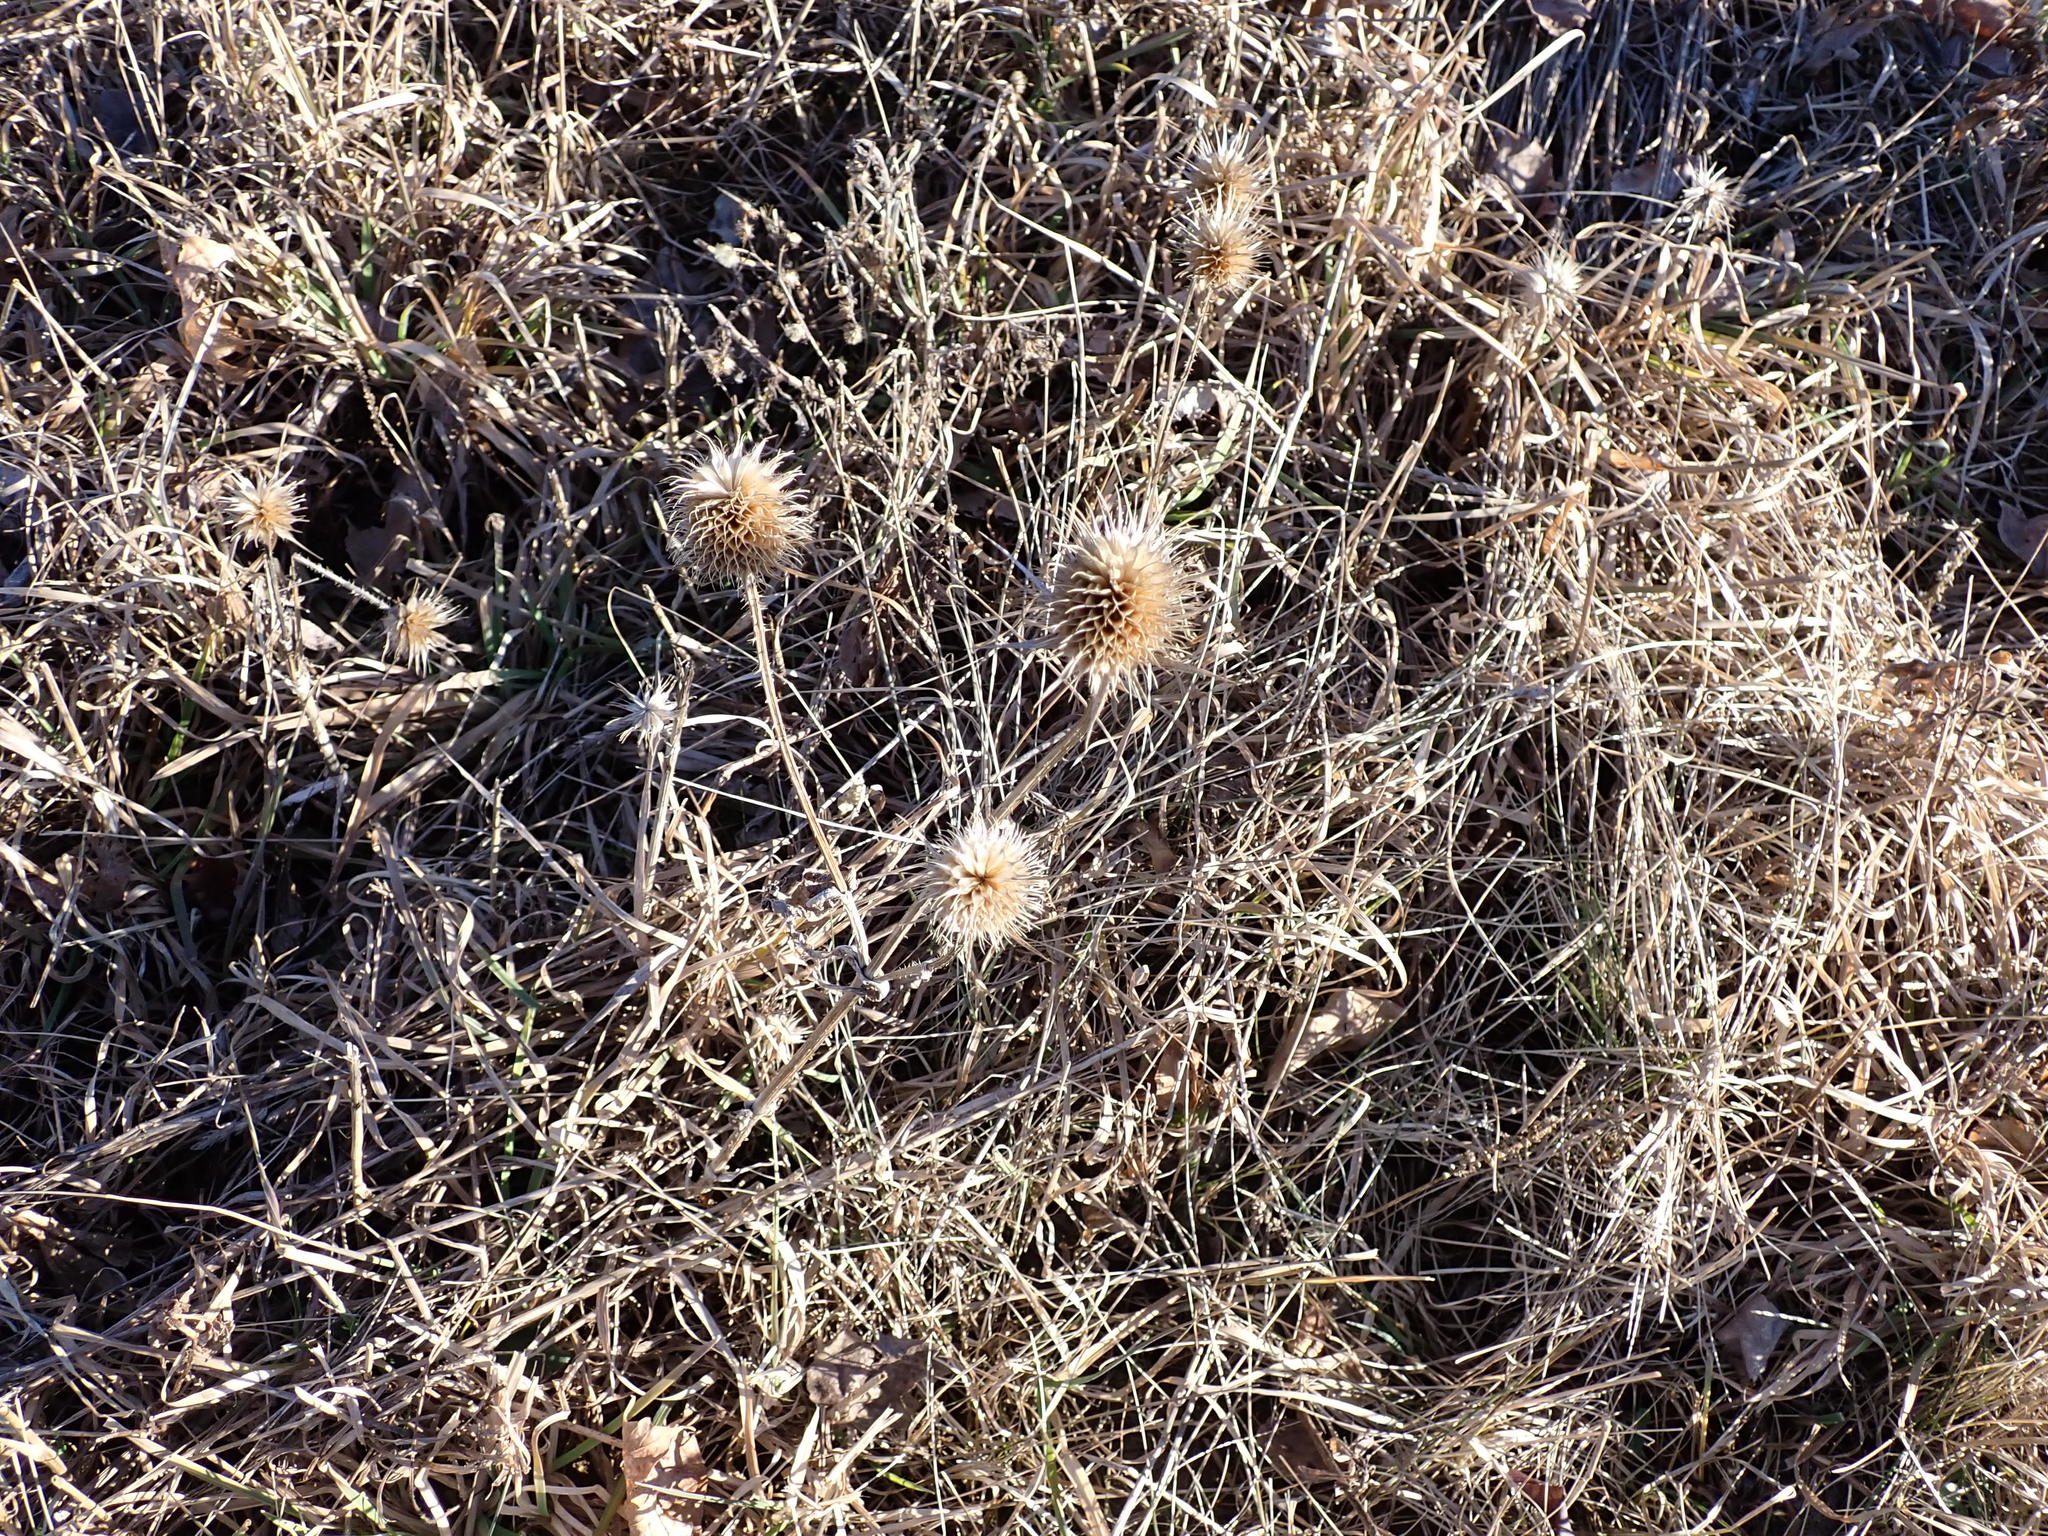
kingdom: Plantae
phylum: Tracheophyta
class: Magnoliopsida
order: Dipsacales
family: Caprifoliaceae
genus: Dipsacus
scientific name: Dipsacus laciniatus
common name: Cut-leaved teasel
